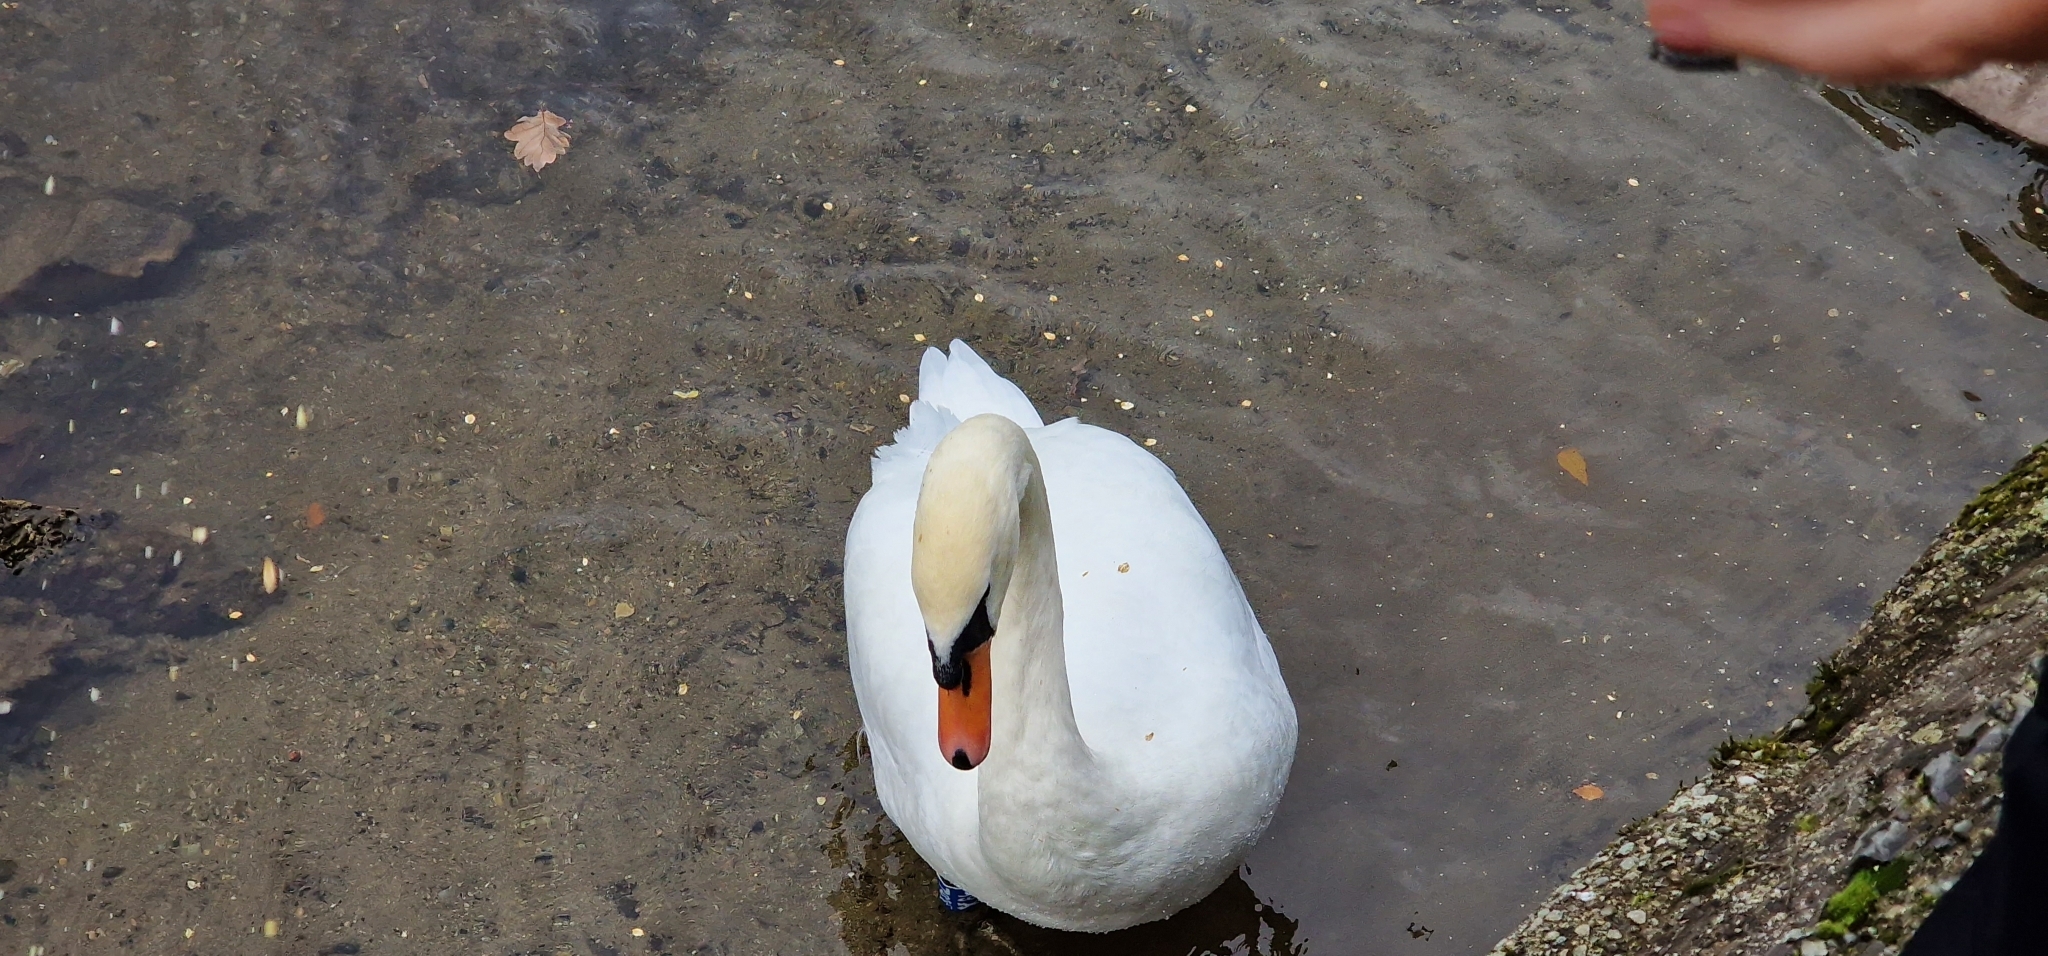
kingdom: Animalia
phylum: Chordata
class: Aves
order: Anseriformes
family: Anatidae
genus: Cygnus
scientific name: Cygnus olor
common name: Mute swan
